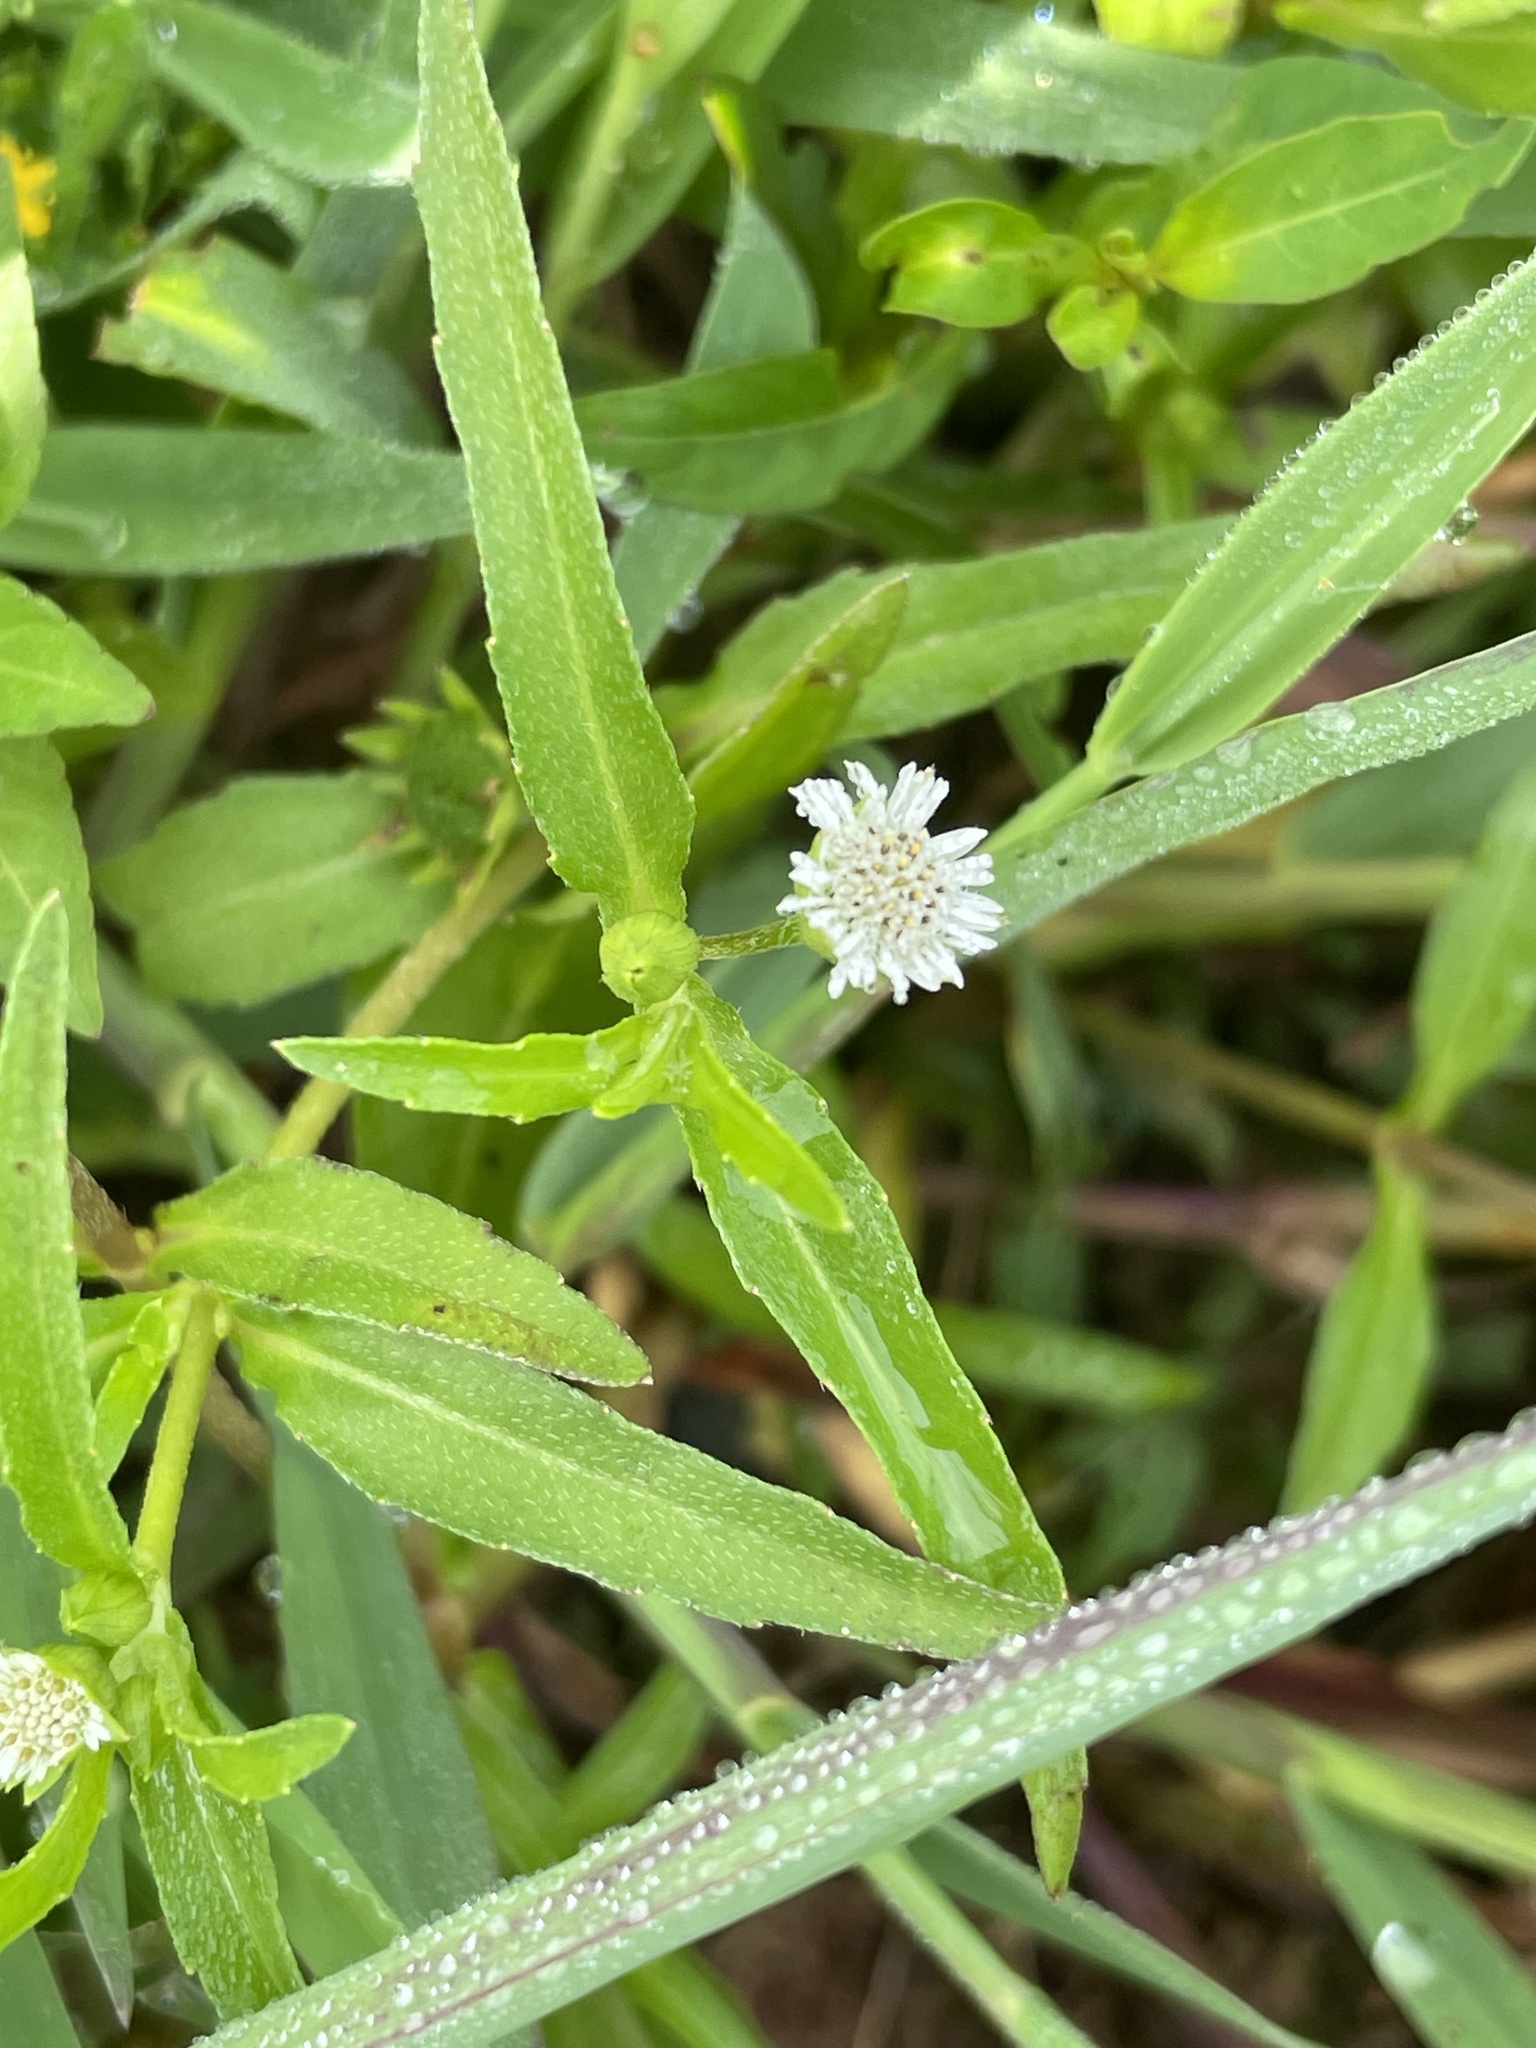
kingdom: Plantae
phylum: Tracheophyta
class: Magnoliopsida
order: Asterales
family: Asteraceae
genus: Eclipta
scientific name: Eclipta prostrata
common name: False daisy
